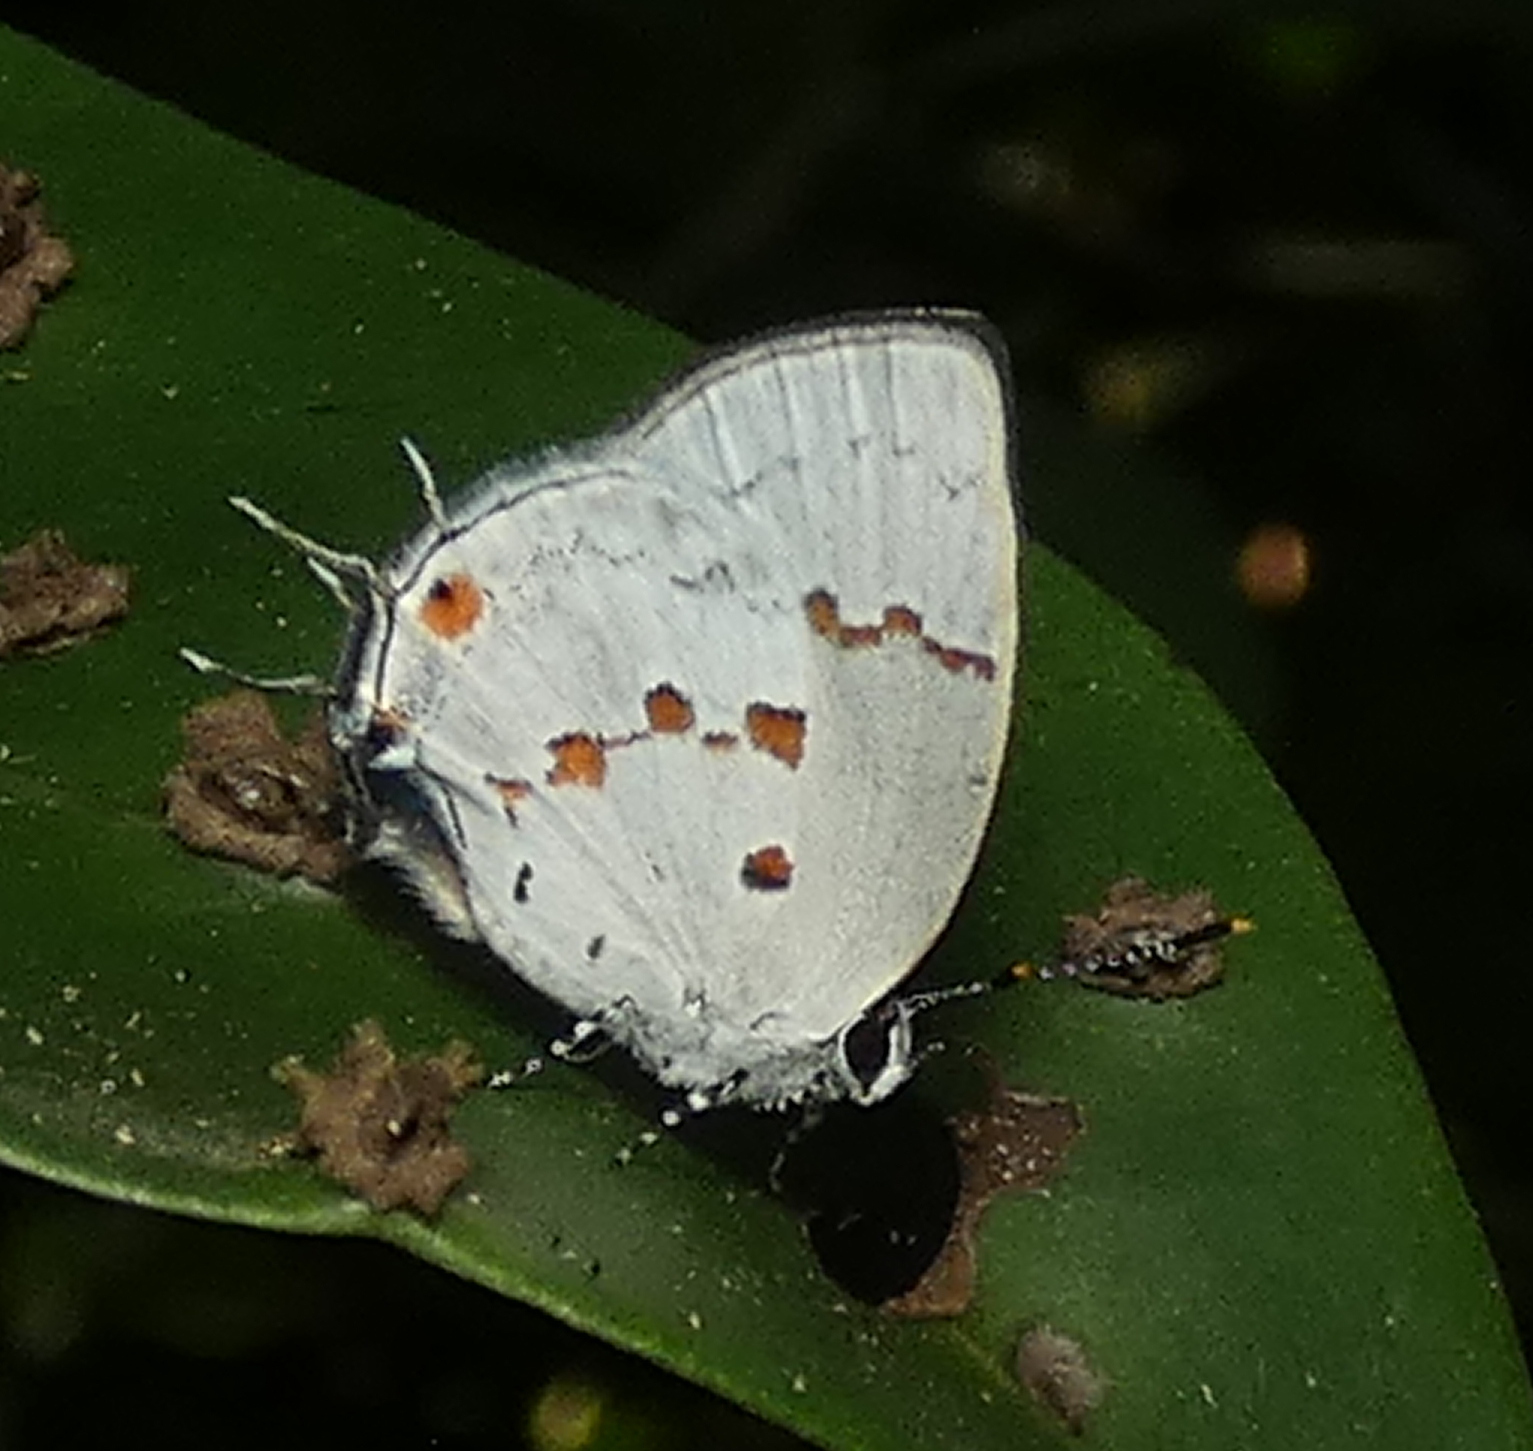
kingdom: Animalia
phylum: Arthropoda
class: Insecta
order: Lepidoptera
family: Lycaenidae
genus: Thecla
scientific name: Thecla celmus
